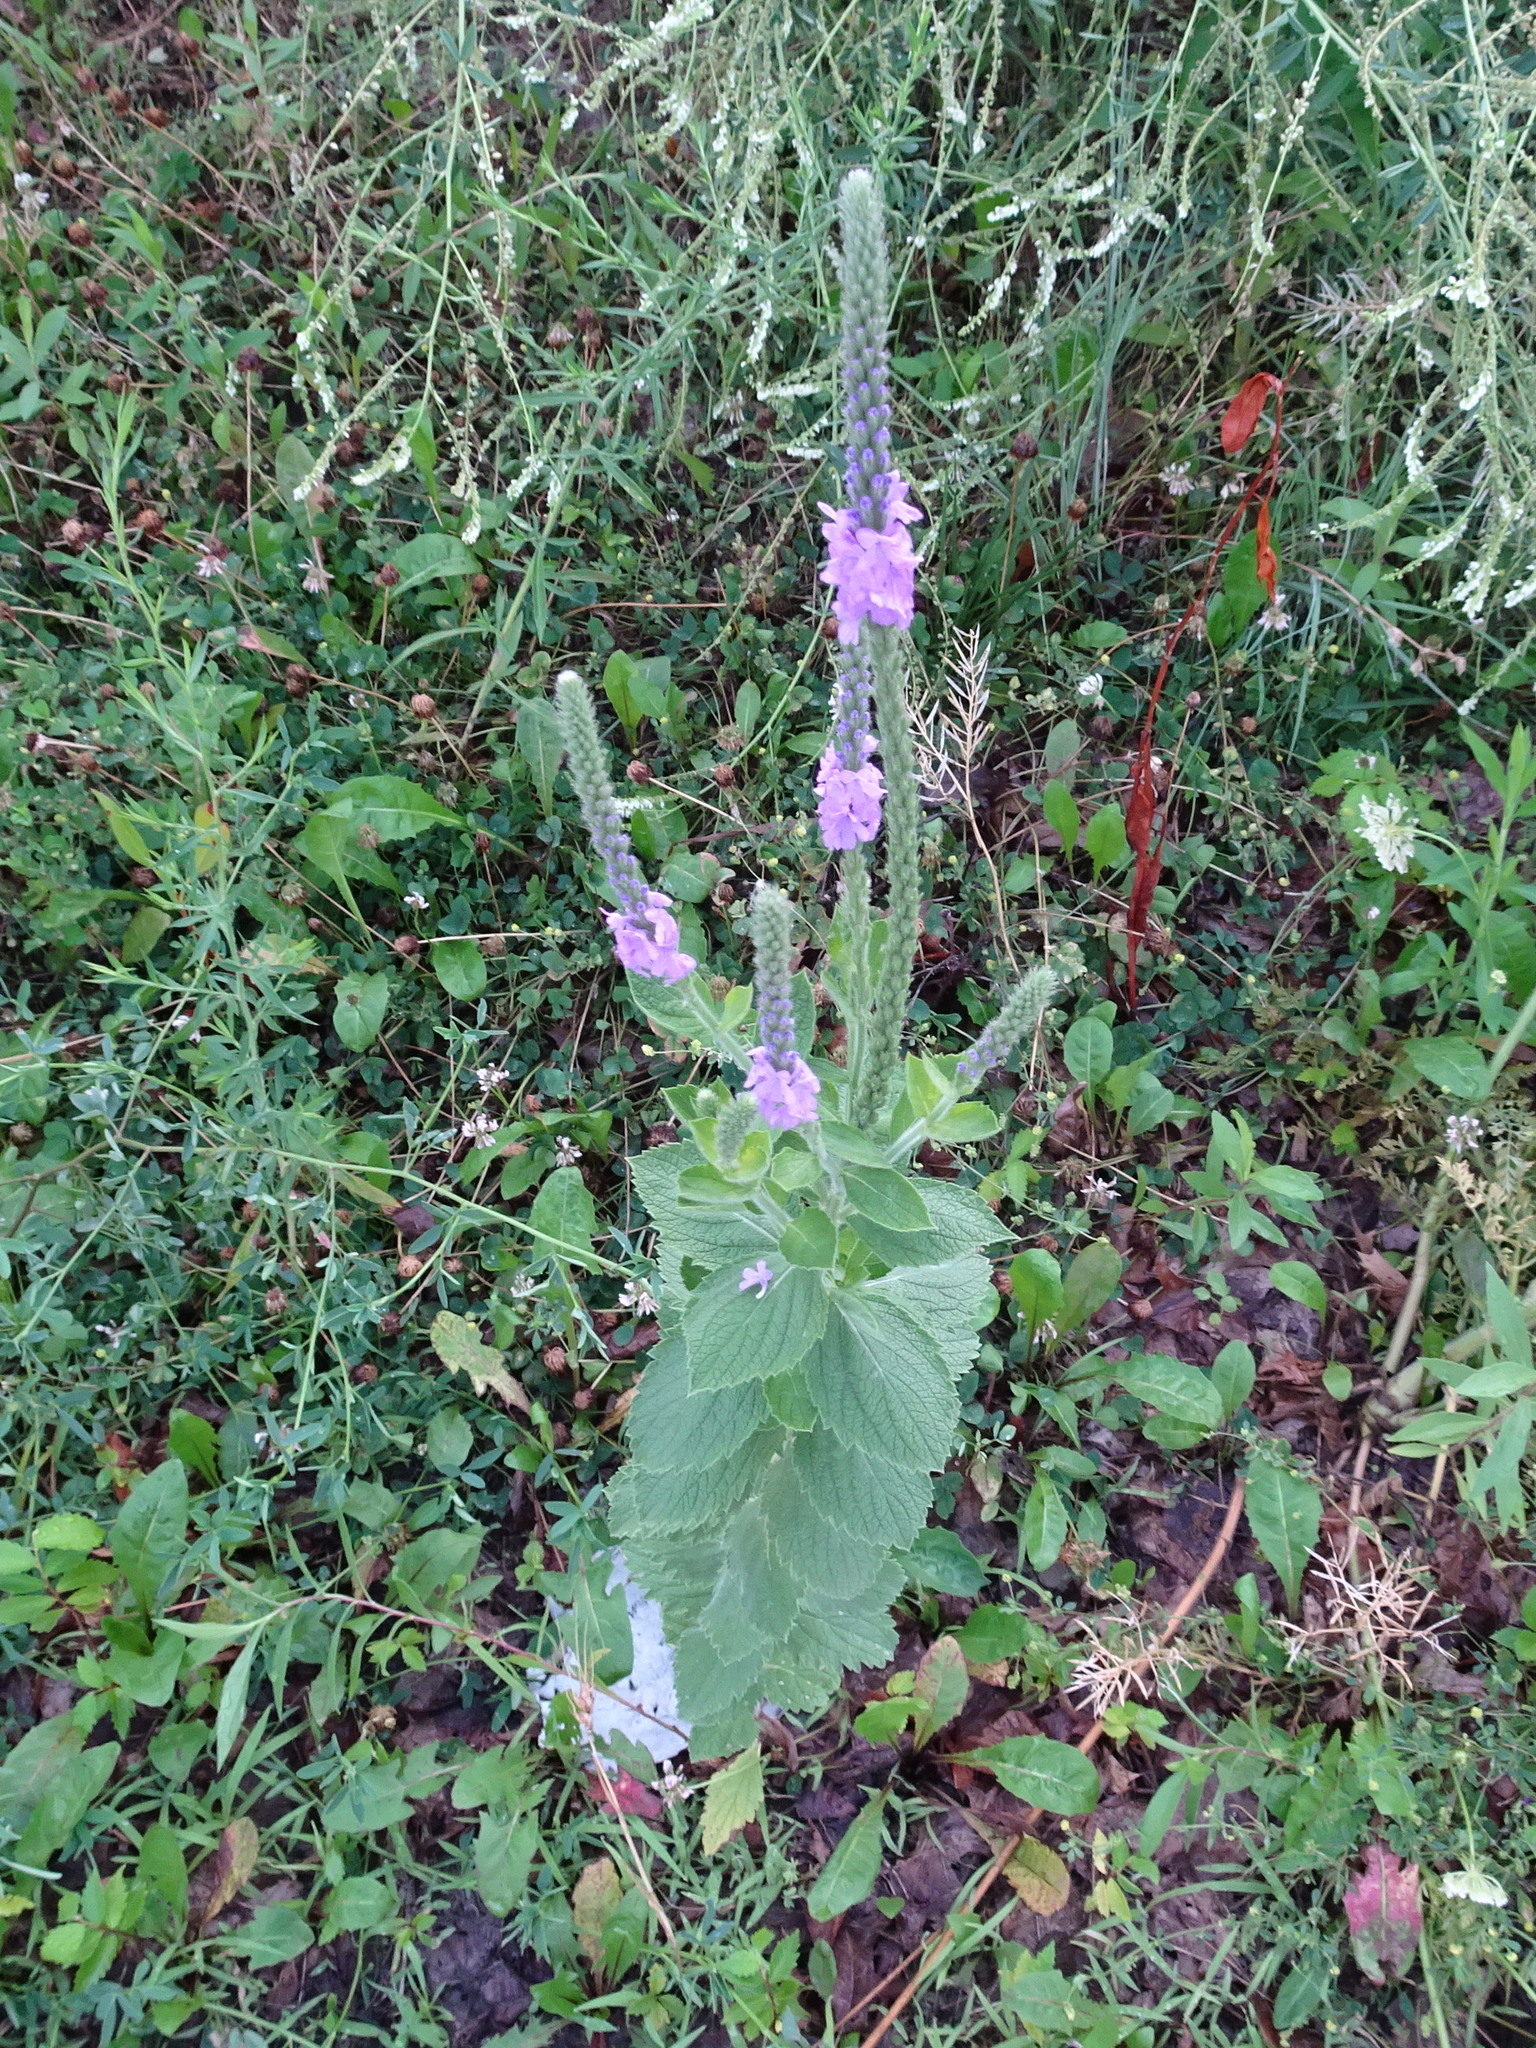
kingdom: Plantae
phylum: Tracheophyta
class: Magnoliopsida
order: Lamiales
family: Verbenaceae
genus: Verbena
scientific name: Verbena stricta
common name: Hoary vervain
